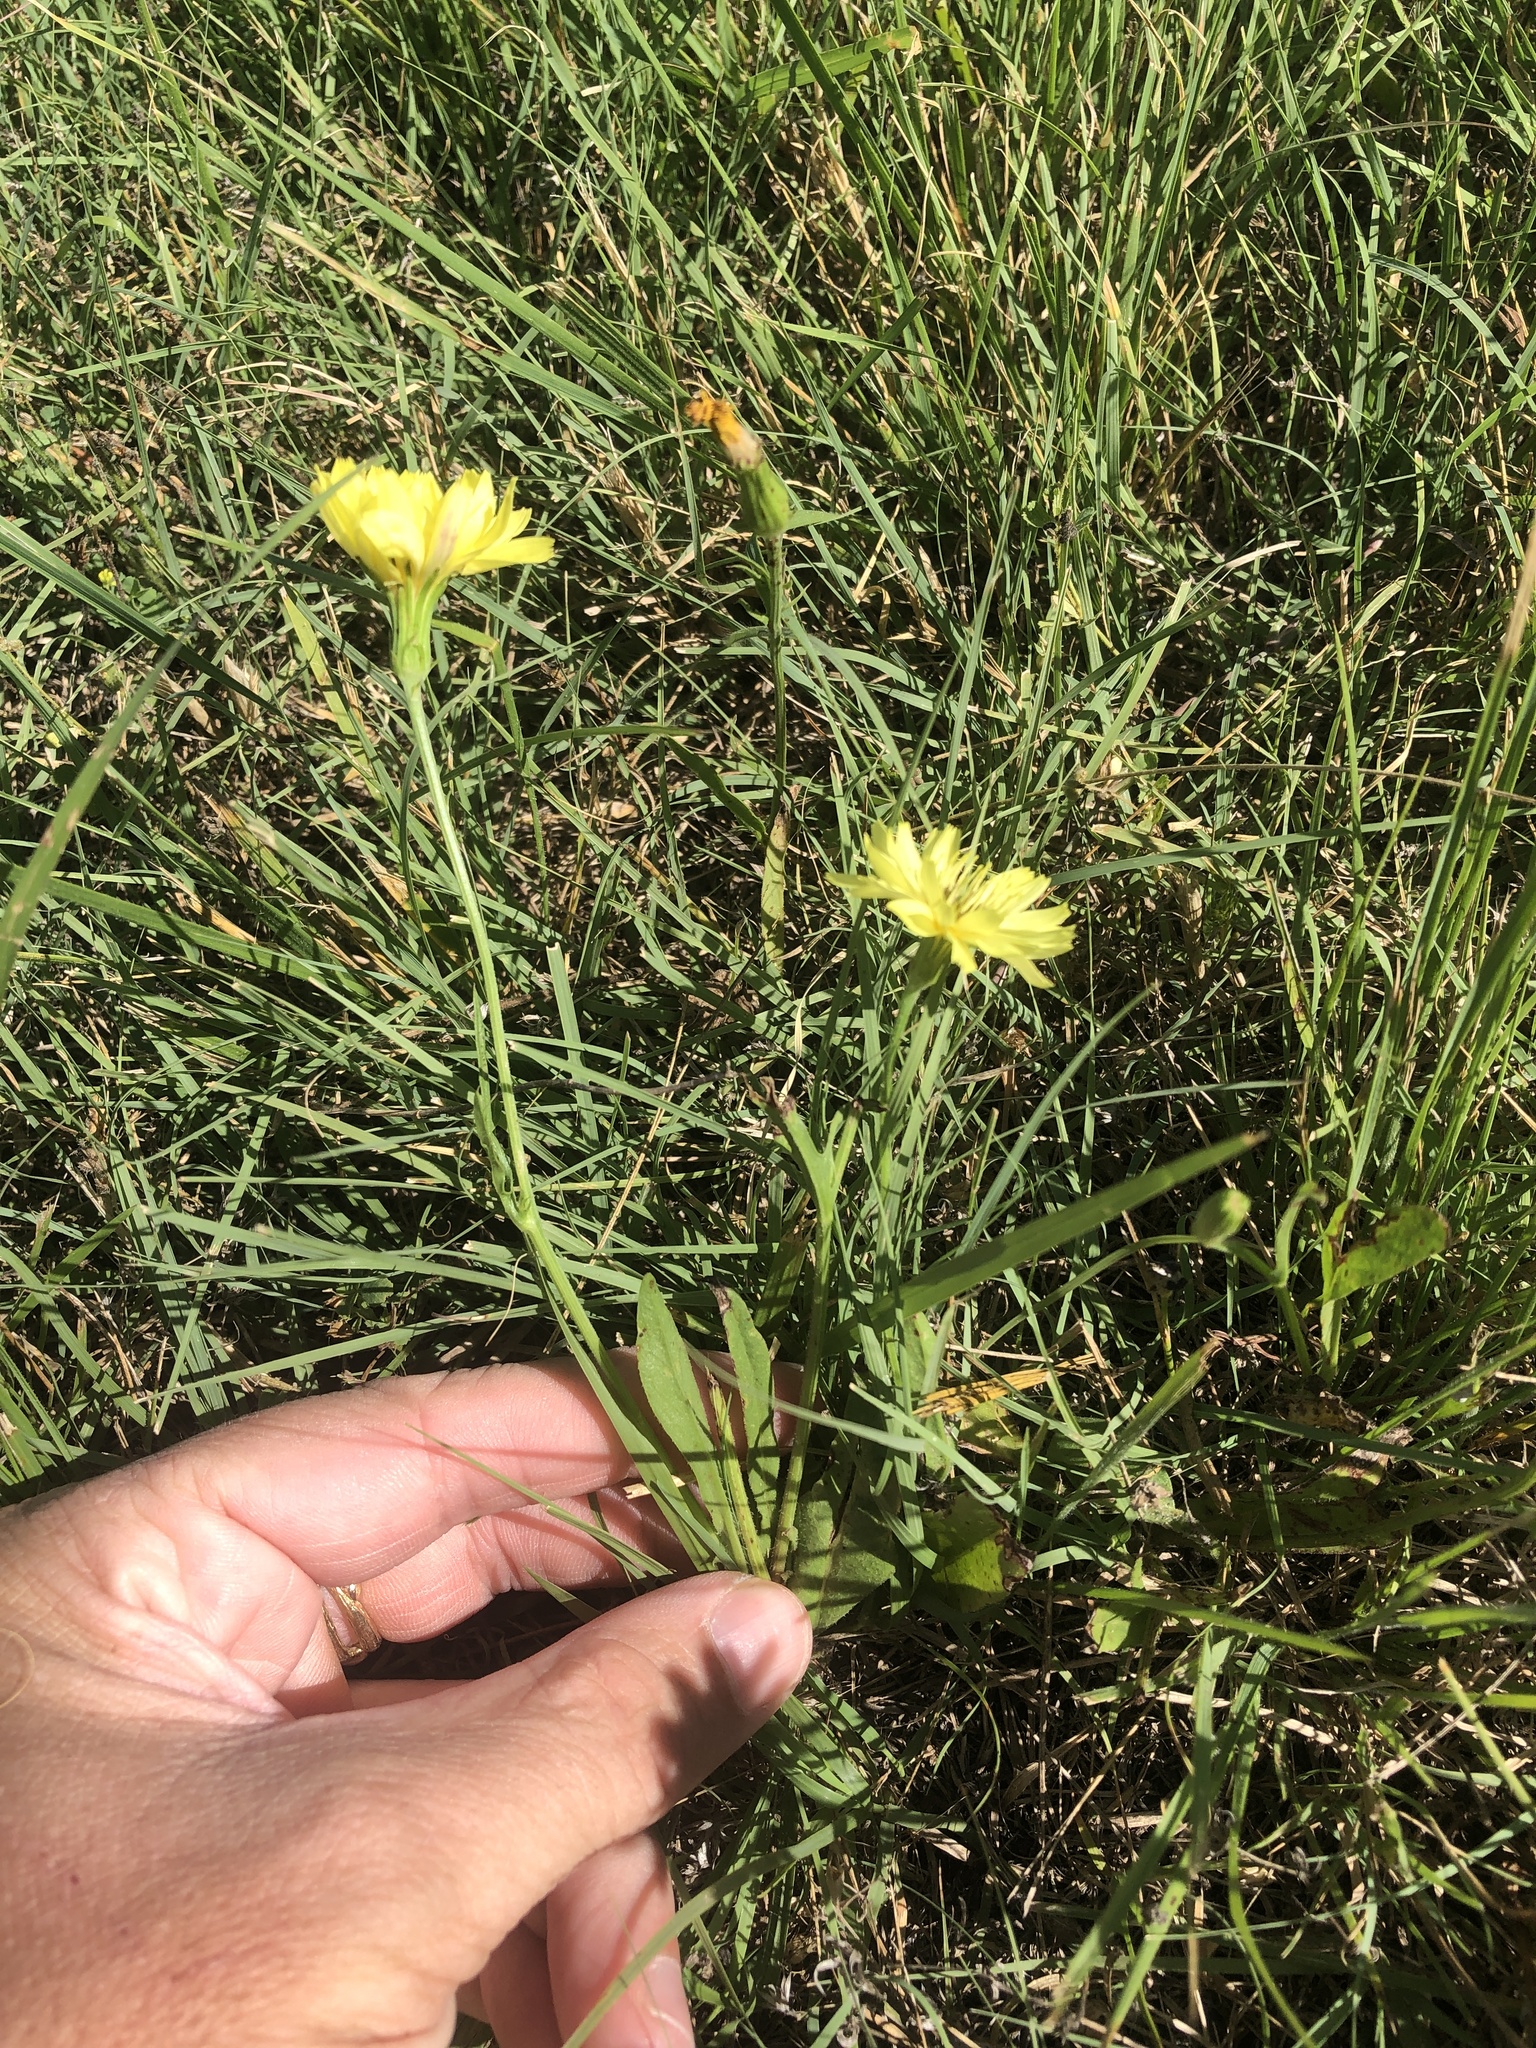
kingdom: Plantae
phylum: Tracheophyta
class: Magnoliopsida
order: Asterales
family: Asteraceae
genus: Pyrrhopappus
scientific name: Pyrrhopappus pauciflorus
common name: Texas false dandelion
